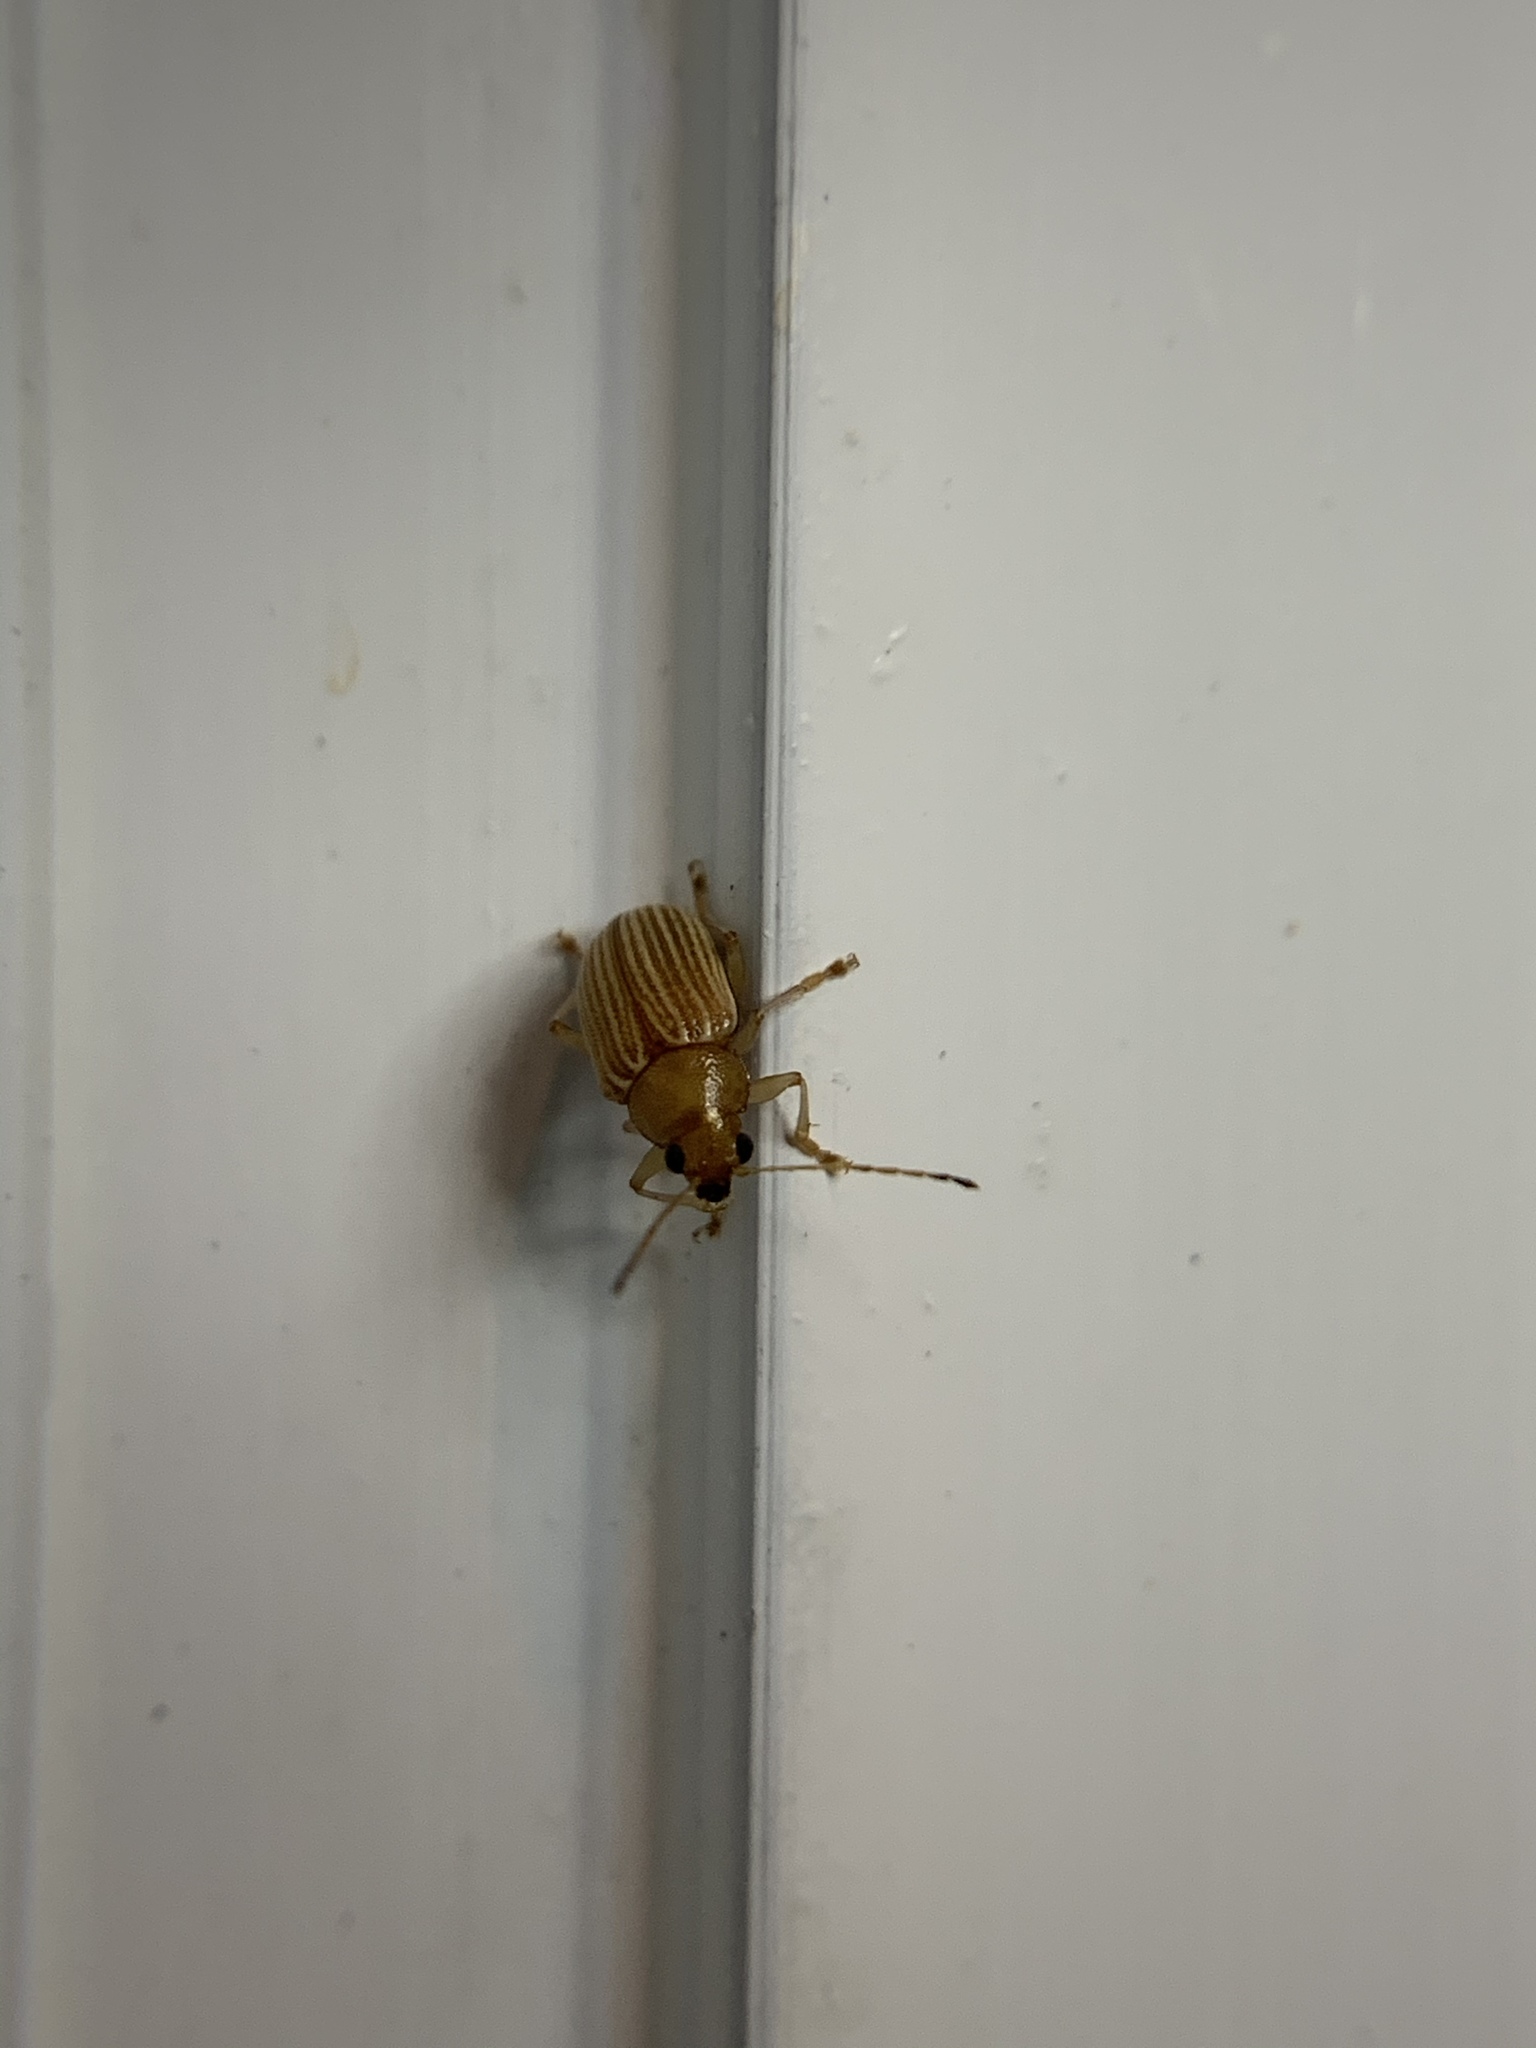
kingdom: Animalia
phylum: Arthropoda
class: Insecta
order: Coleoptera
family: Chrysomelidae
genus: Colaspis
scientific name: Colaspis brunnea
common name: Grape colaspis
